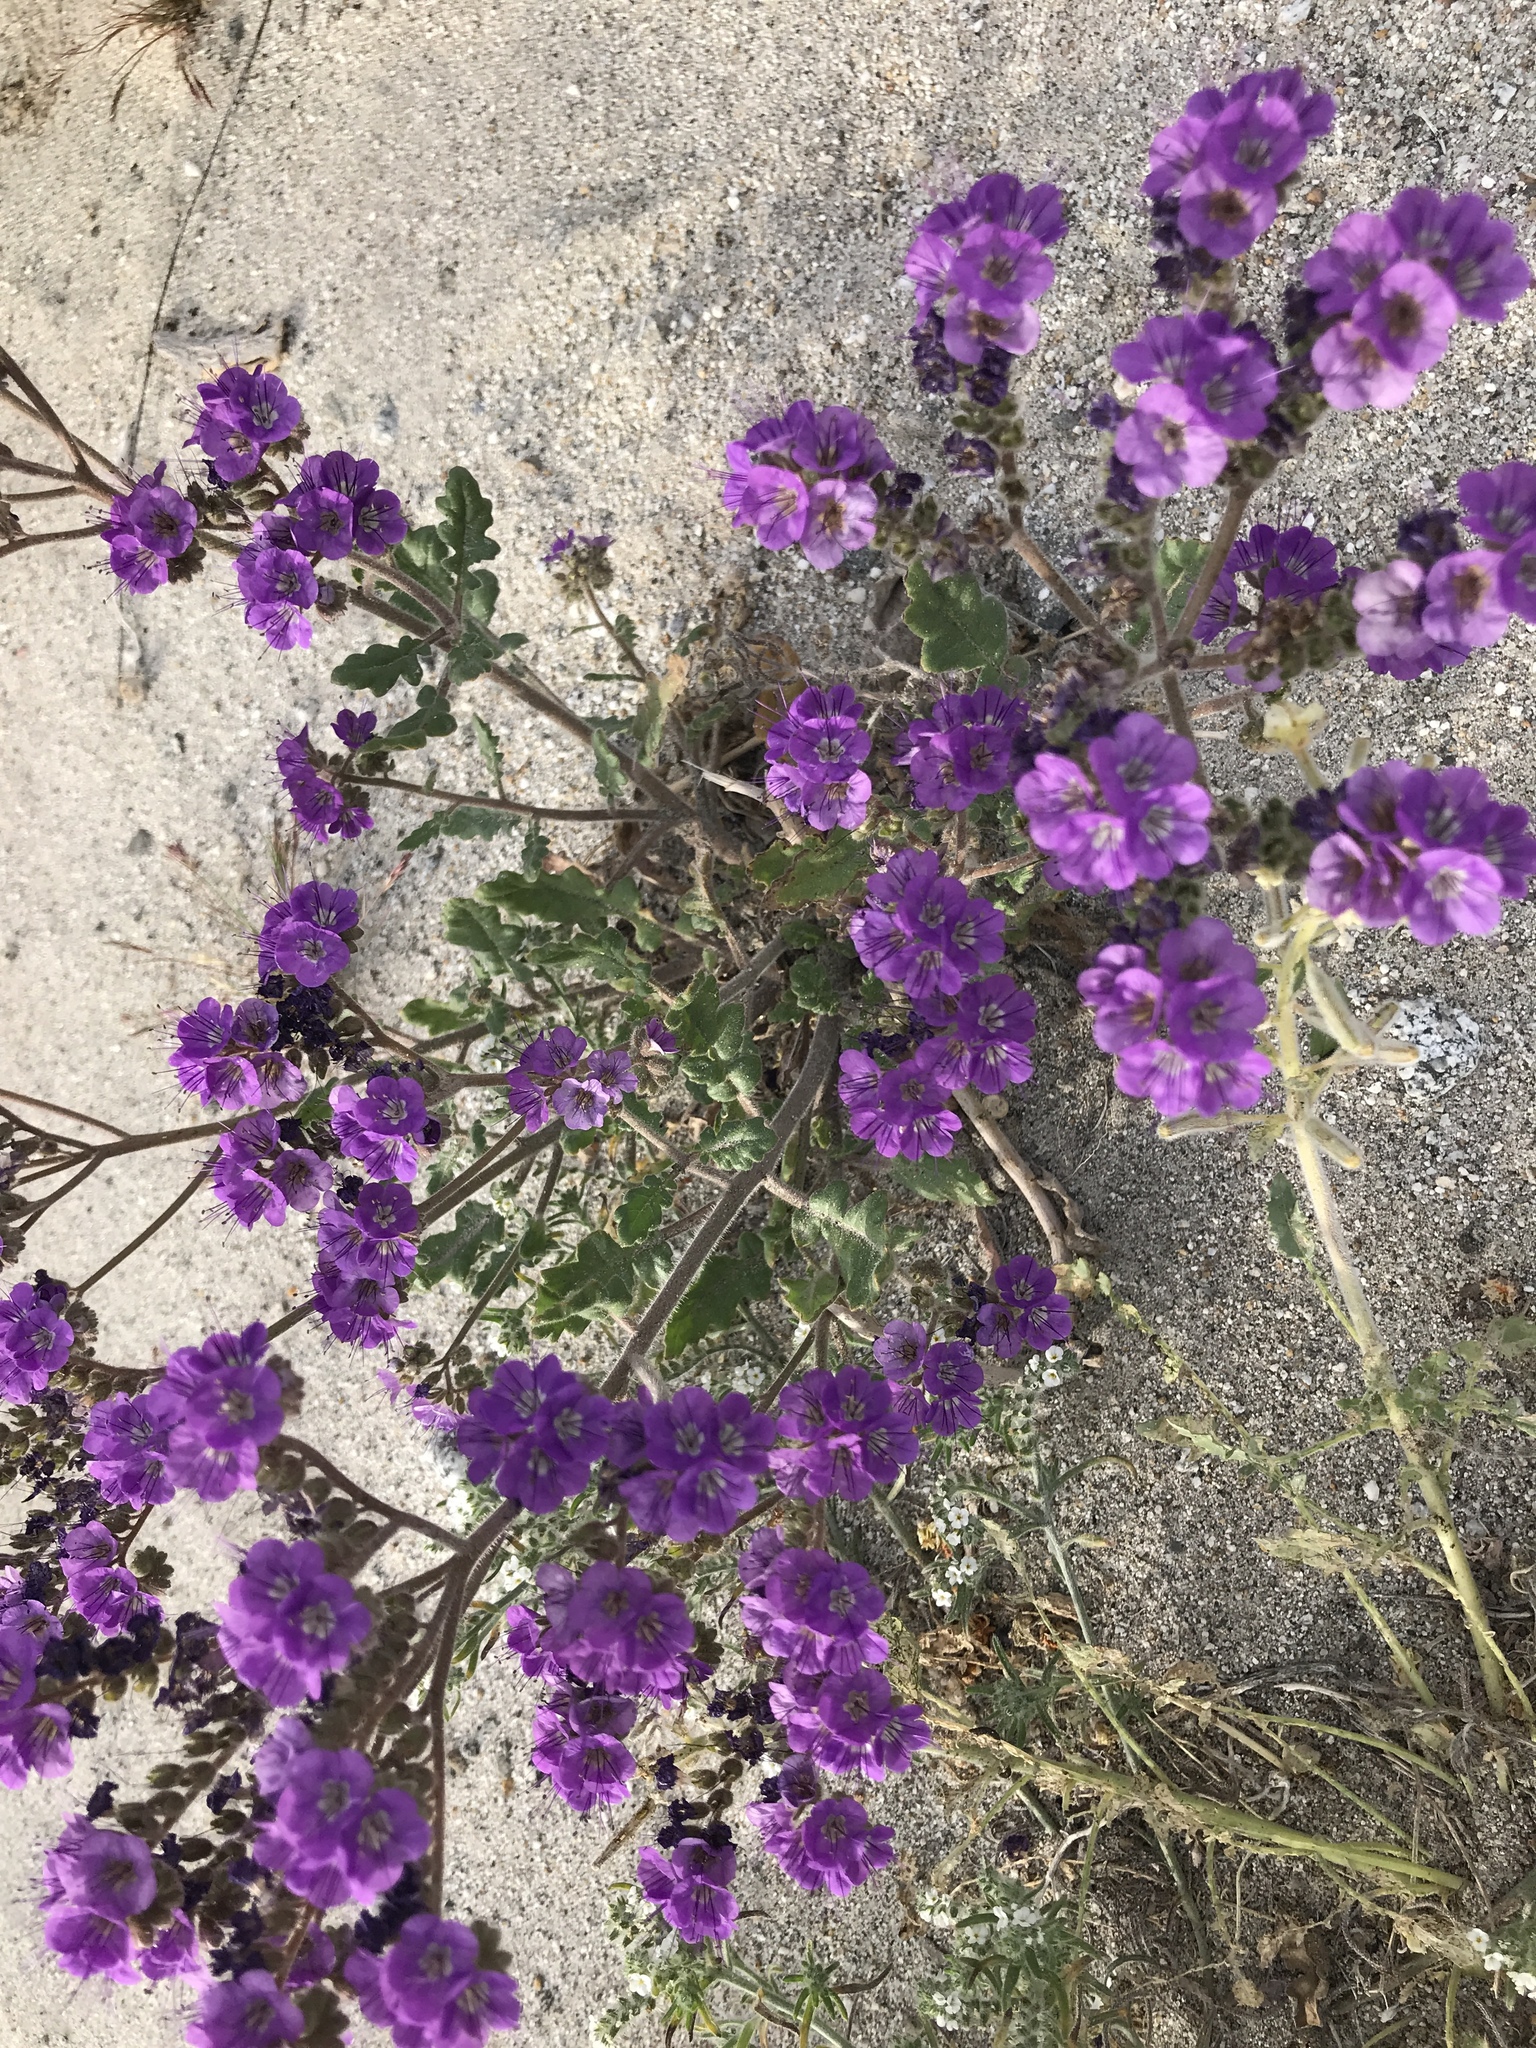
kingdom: Plantae
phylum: Tracheophyta
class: Magnoliopsida
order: Boraginales
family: Hydrophyllaceae
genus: Phacelia
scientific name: Phacelia crenulata
